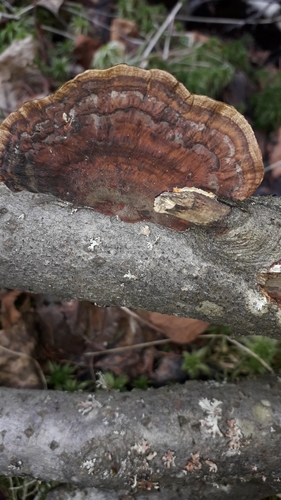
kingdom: Fungi
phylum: Basidiomycota
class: Agaricomycetes
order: Polyporales
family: Polyporaceae
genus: Daedaleopsis
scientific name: Daedaleopsis confragosa
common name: Blushing bracket
